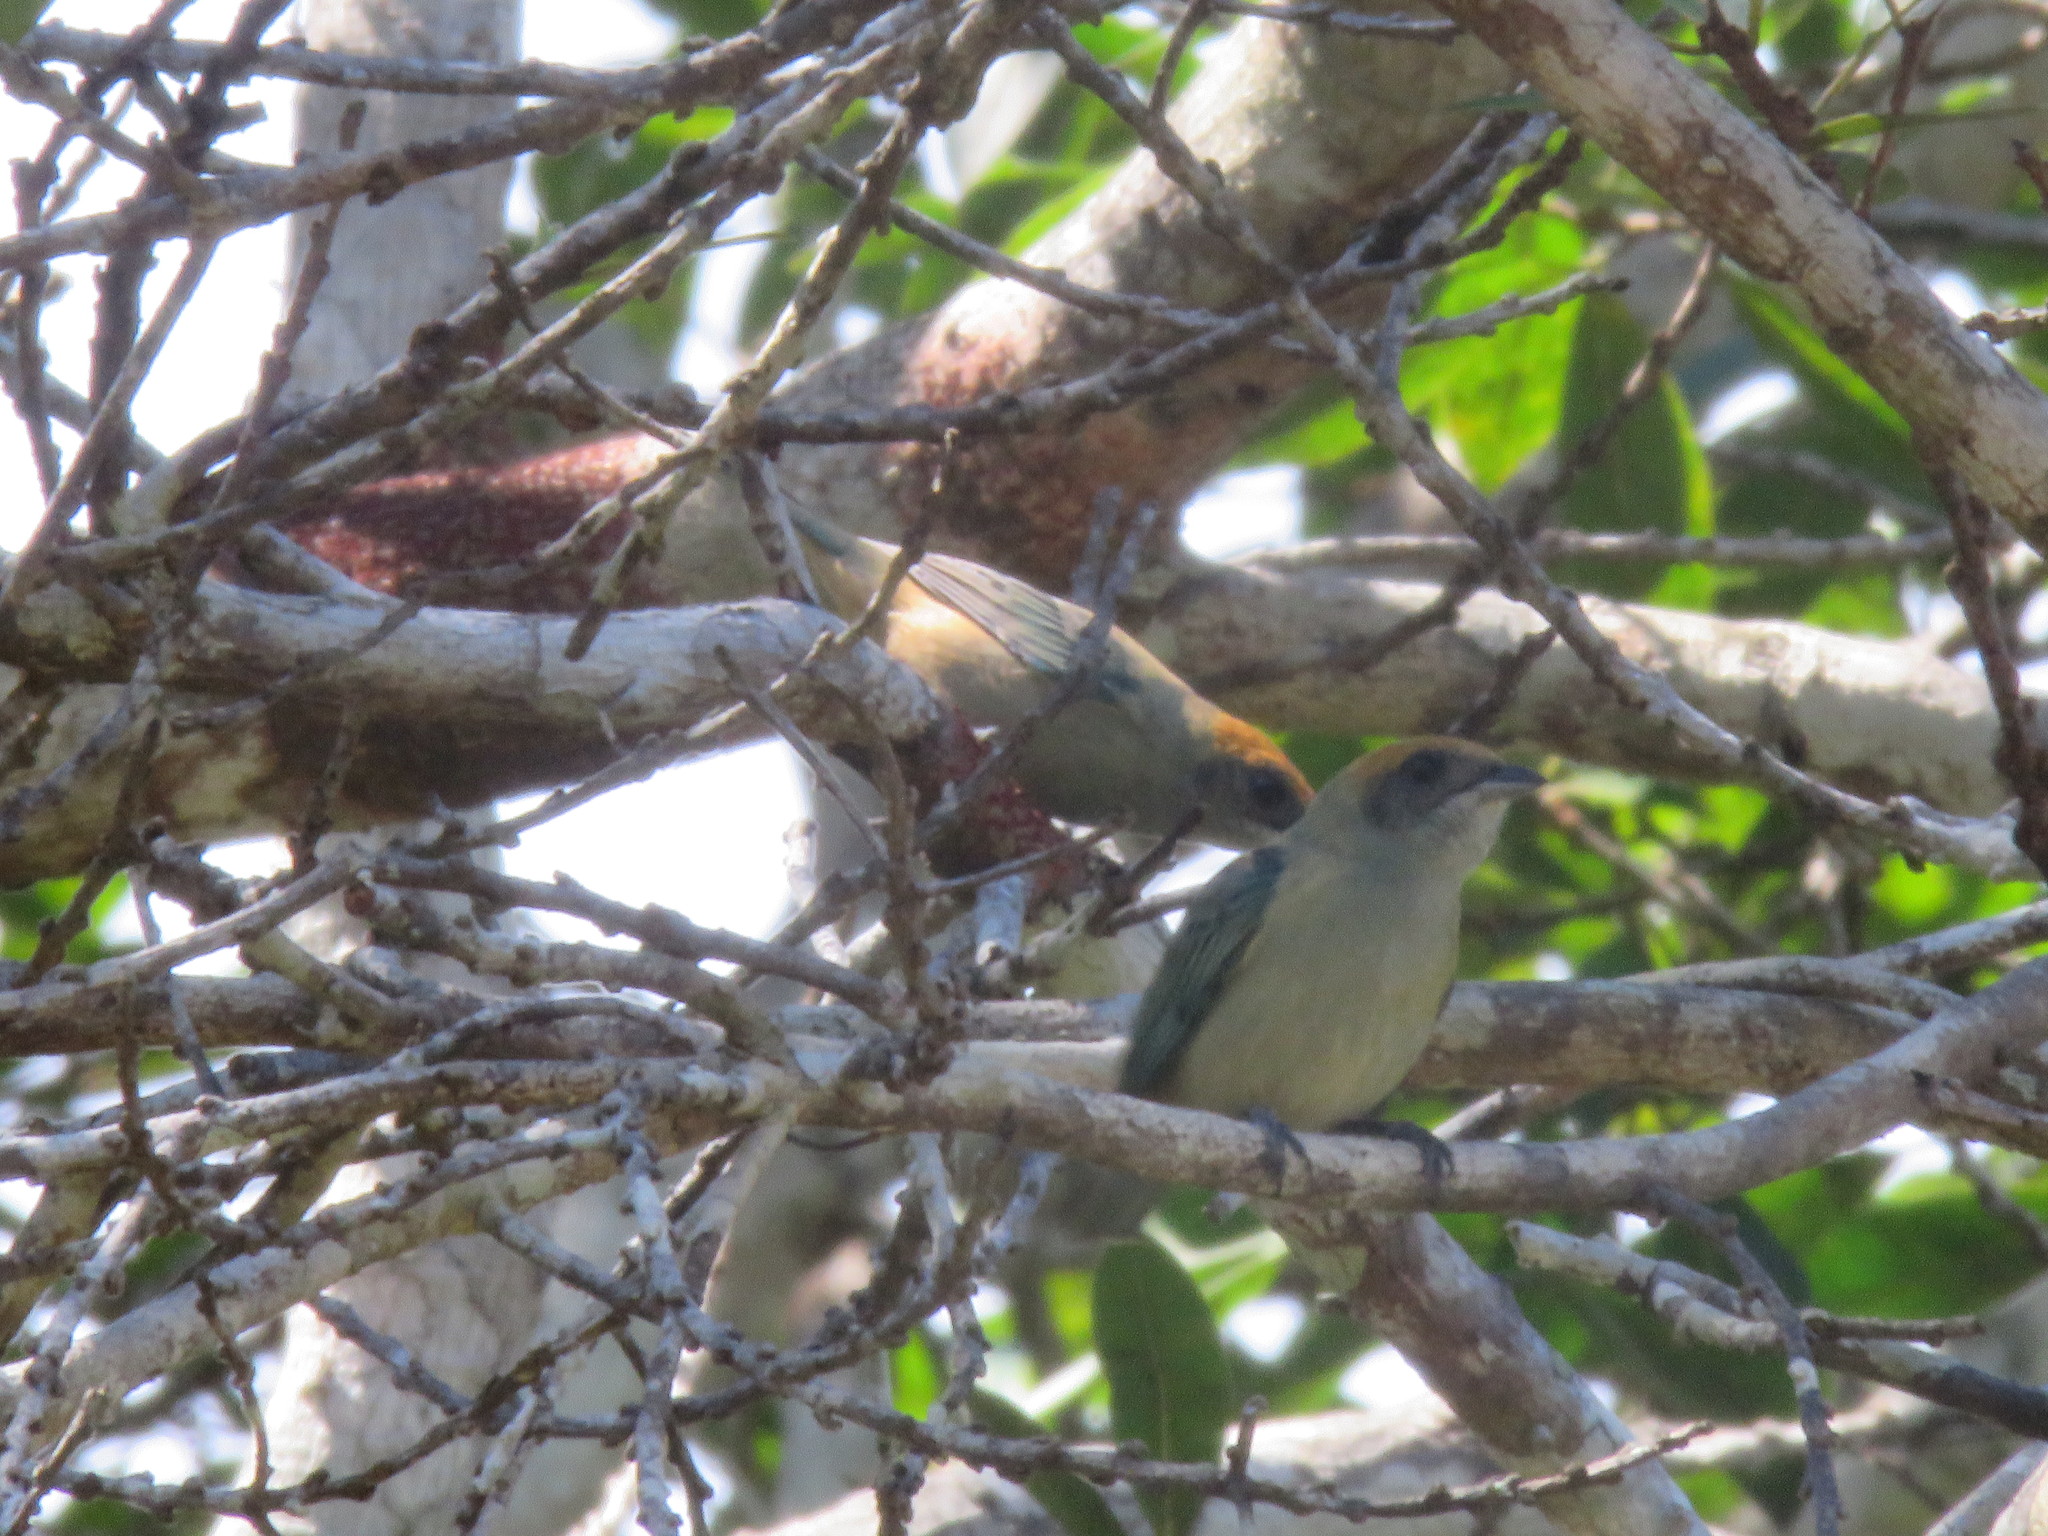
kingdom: Animalia
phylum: Chordata
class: Aves
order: Passeriformes
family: Thraupidae
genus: Stilpnia
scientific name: Stilpnia cayana
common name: Burnished-buff tanager
